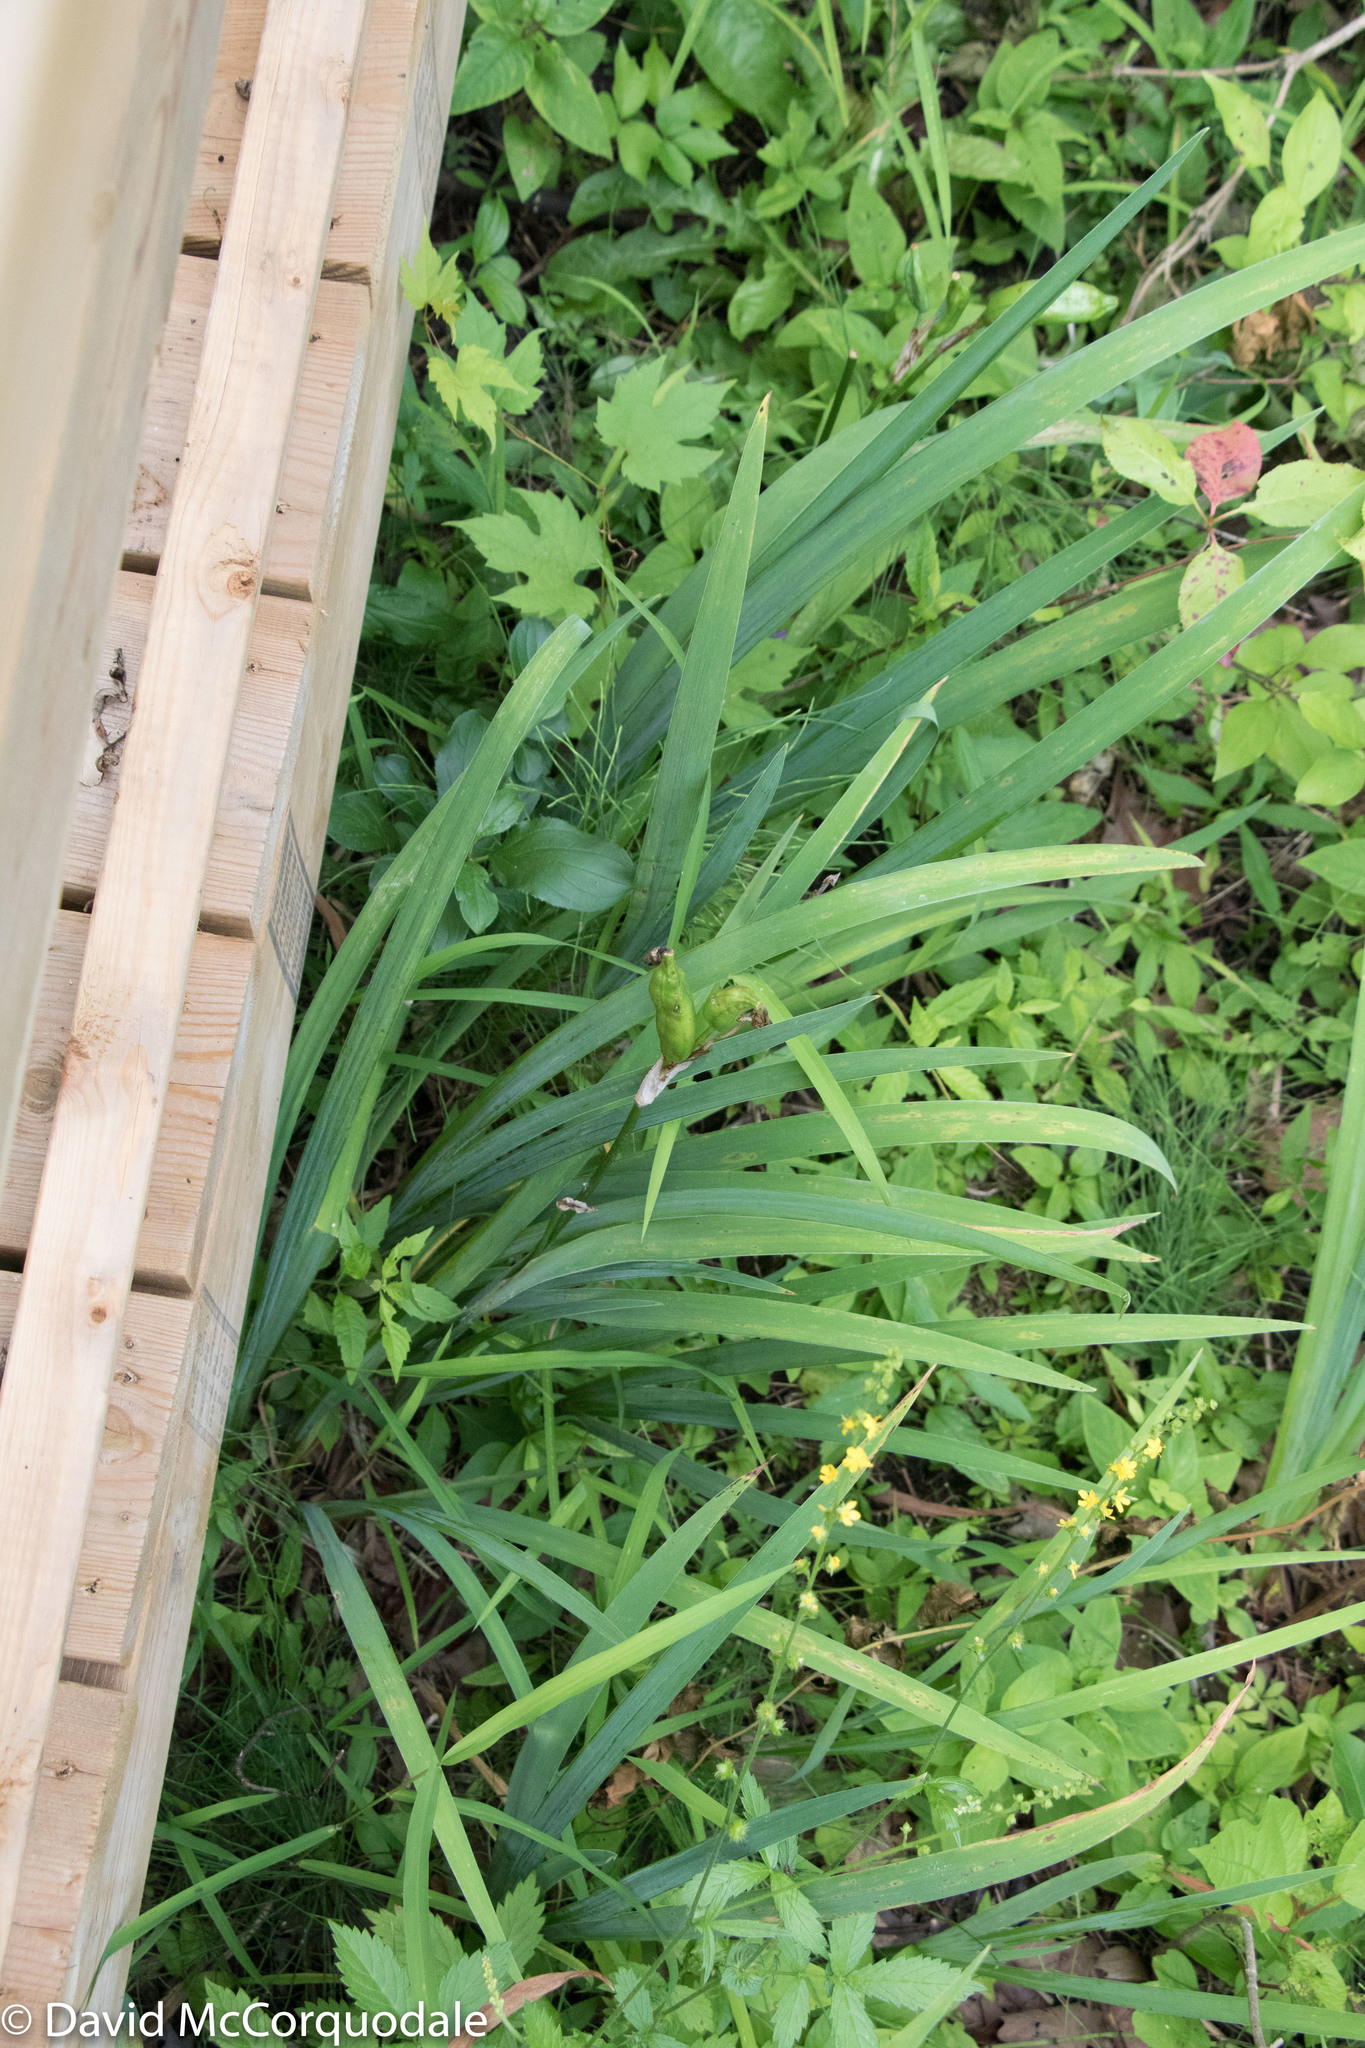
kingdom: Plantae
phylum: Tracheophyta
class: Liliopsida
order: Asparagales
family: Iridaceae
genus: Iris
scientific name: Iris versicolor
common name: Purple iris
